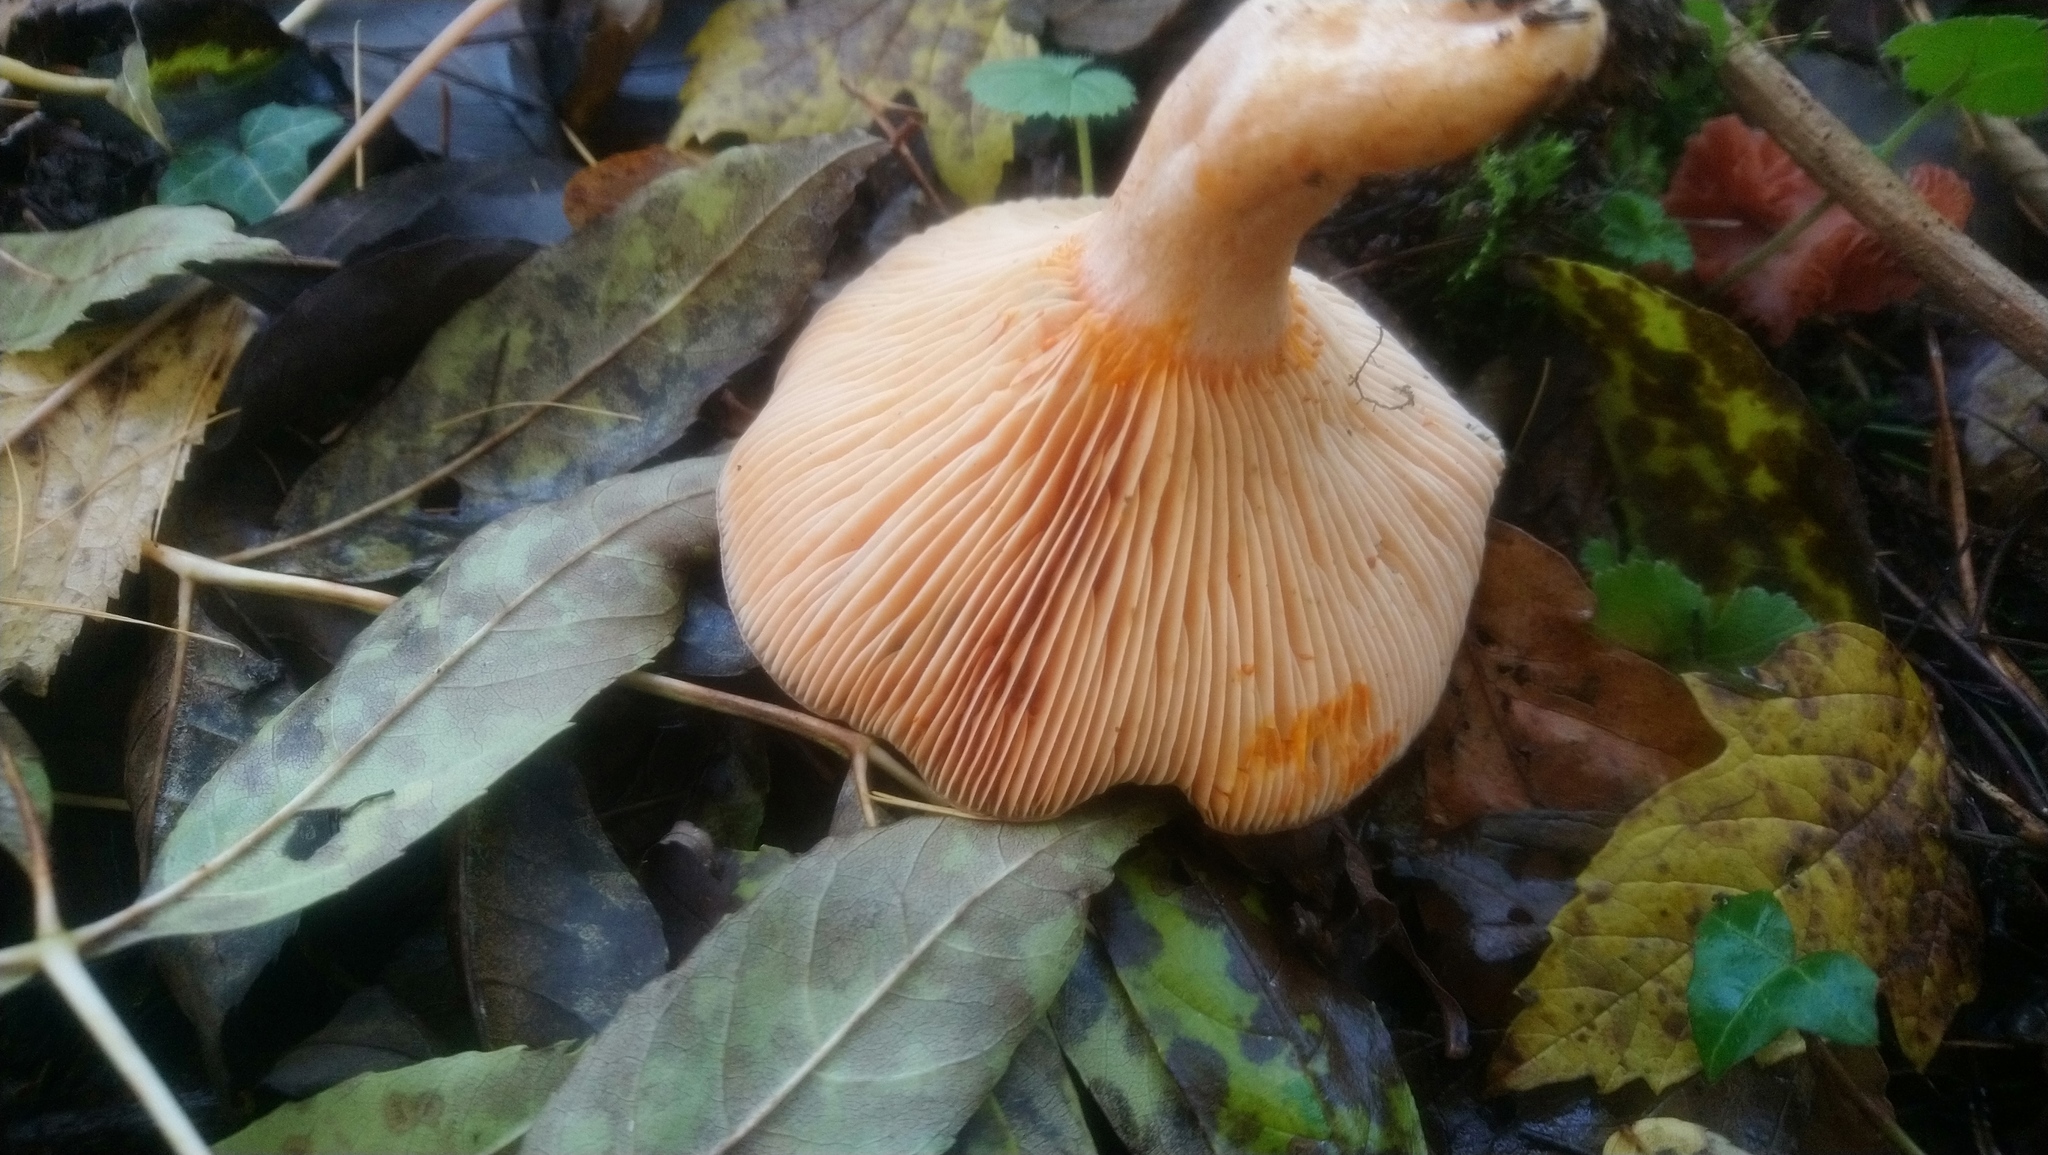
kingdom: Fungi
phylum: Basidiomycota
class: Agaricomycetes
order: Russulales
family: Russulaceae
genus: Lactarius
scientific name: Lactarius semisanguifluus
